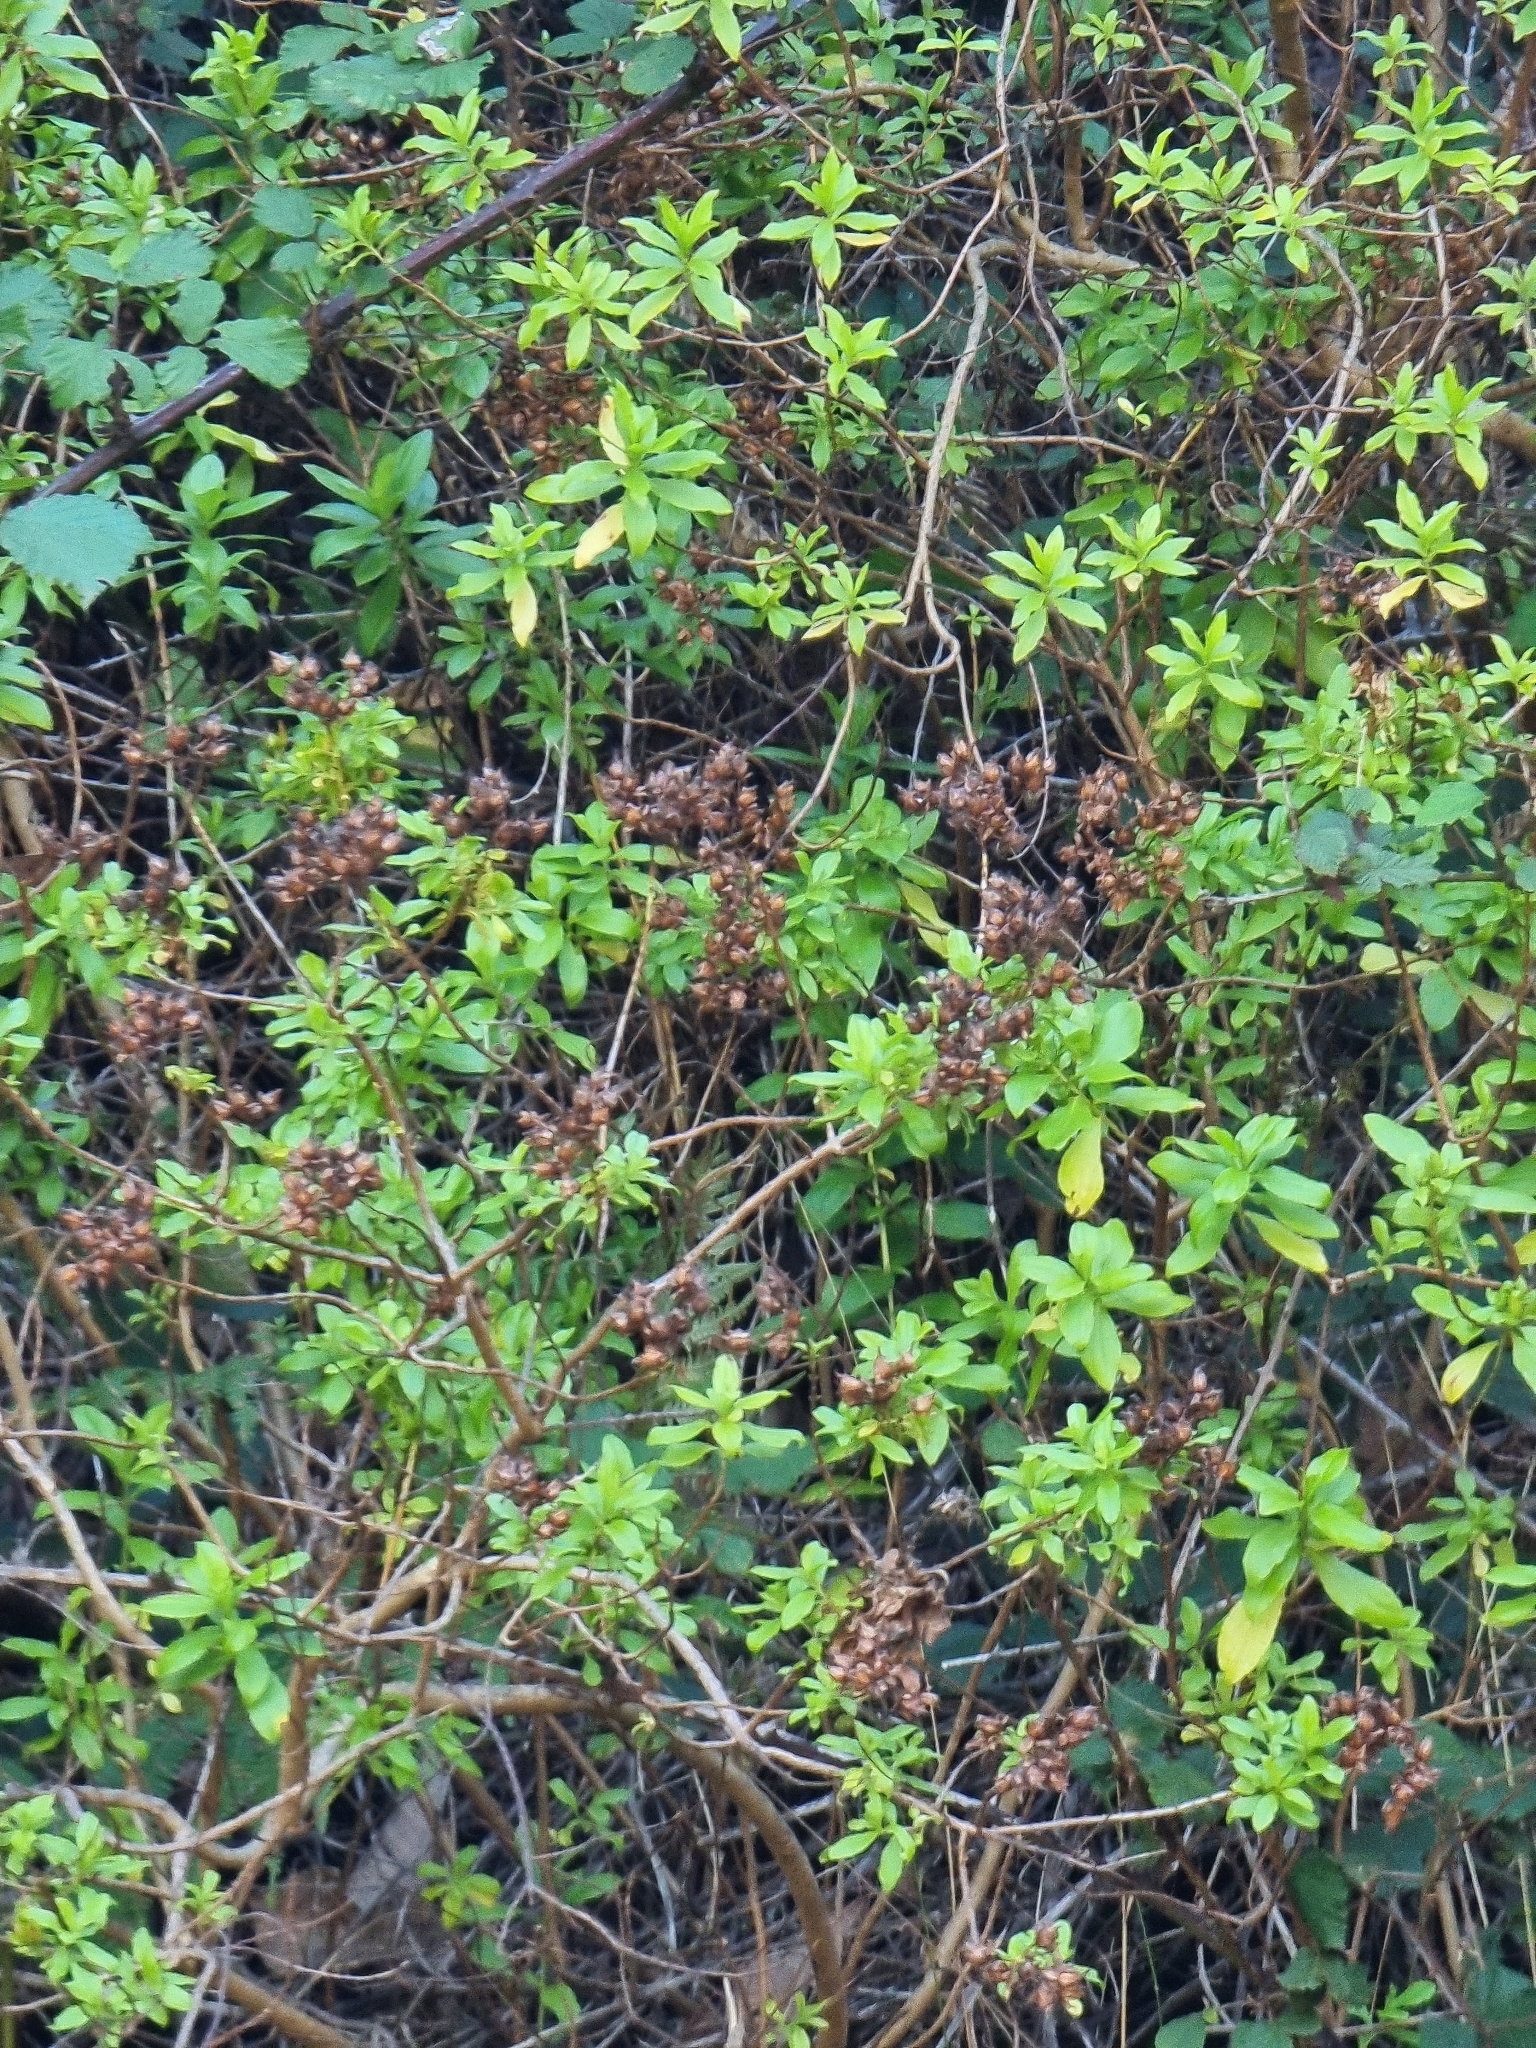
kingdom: Plantae
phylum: Tracheophyta
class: Magnoliopsida
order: Malpighiales
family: Hypericaceae
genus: Hypericum
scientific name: Hypericum glandulosum
